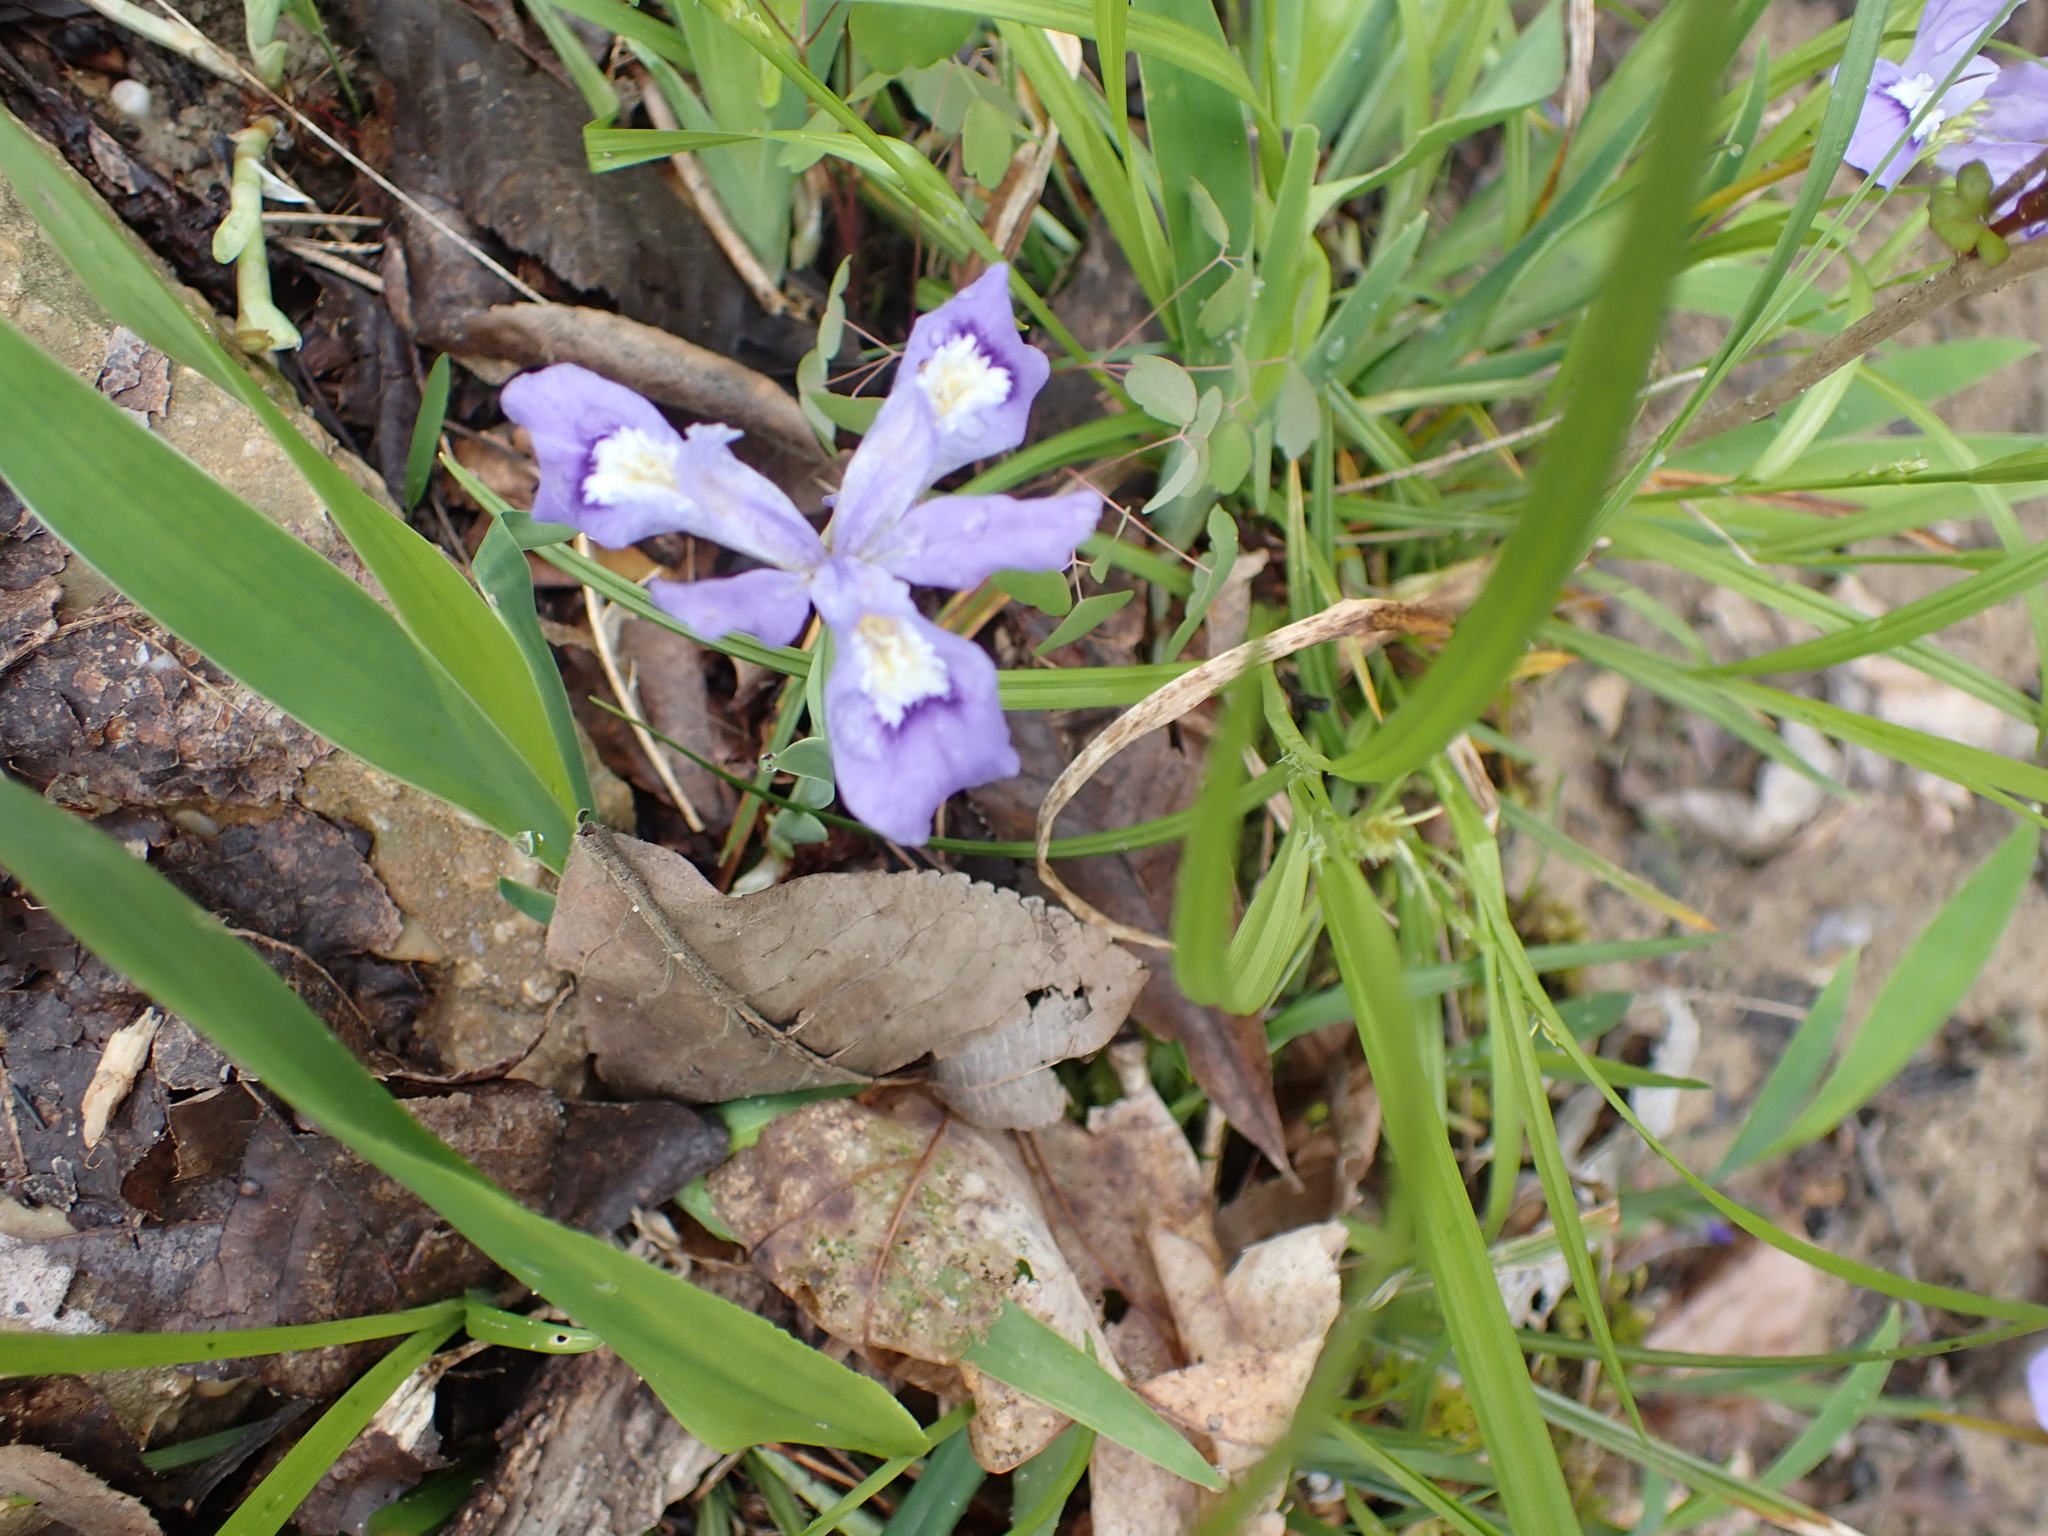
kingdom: Plantae
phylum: Tracheophyta
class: Liliopsida
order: Asparagales
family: Iridaceae
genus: Iris
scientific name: Iris cristata
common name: Crested iris
